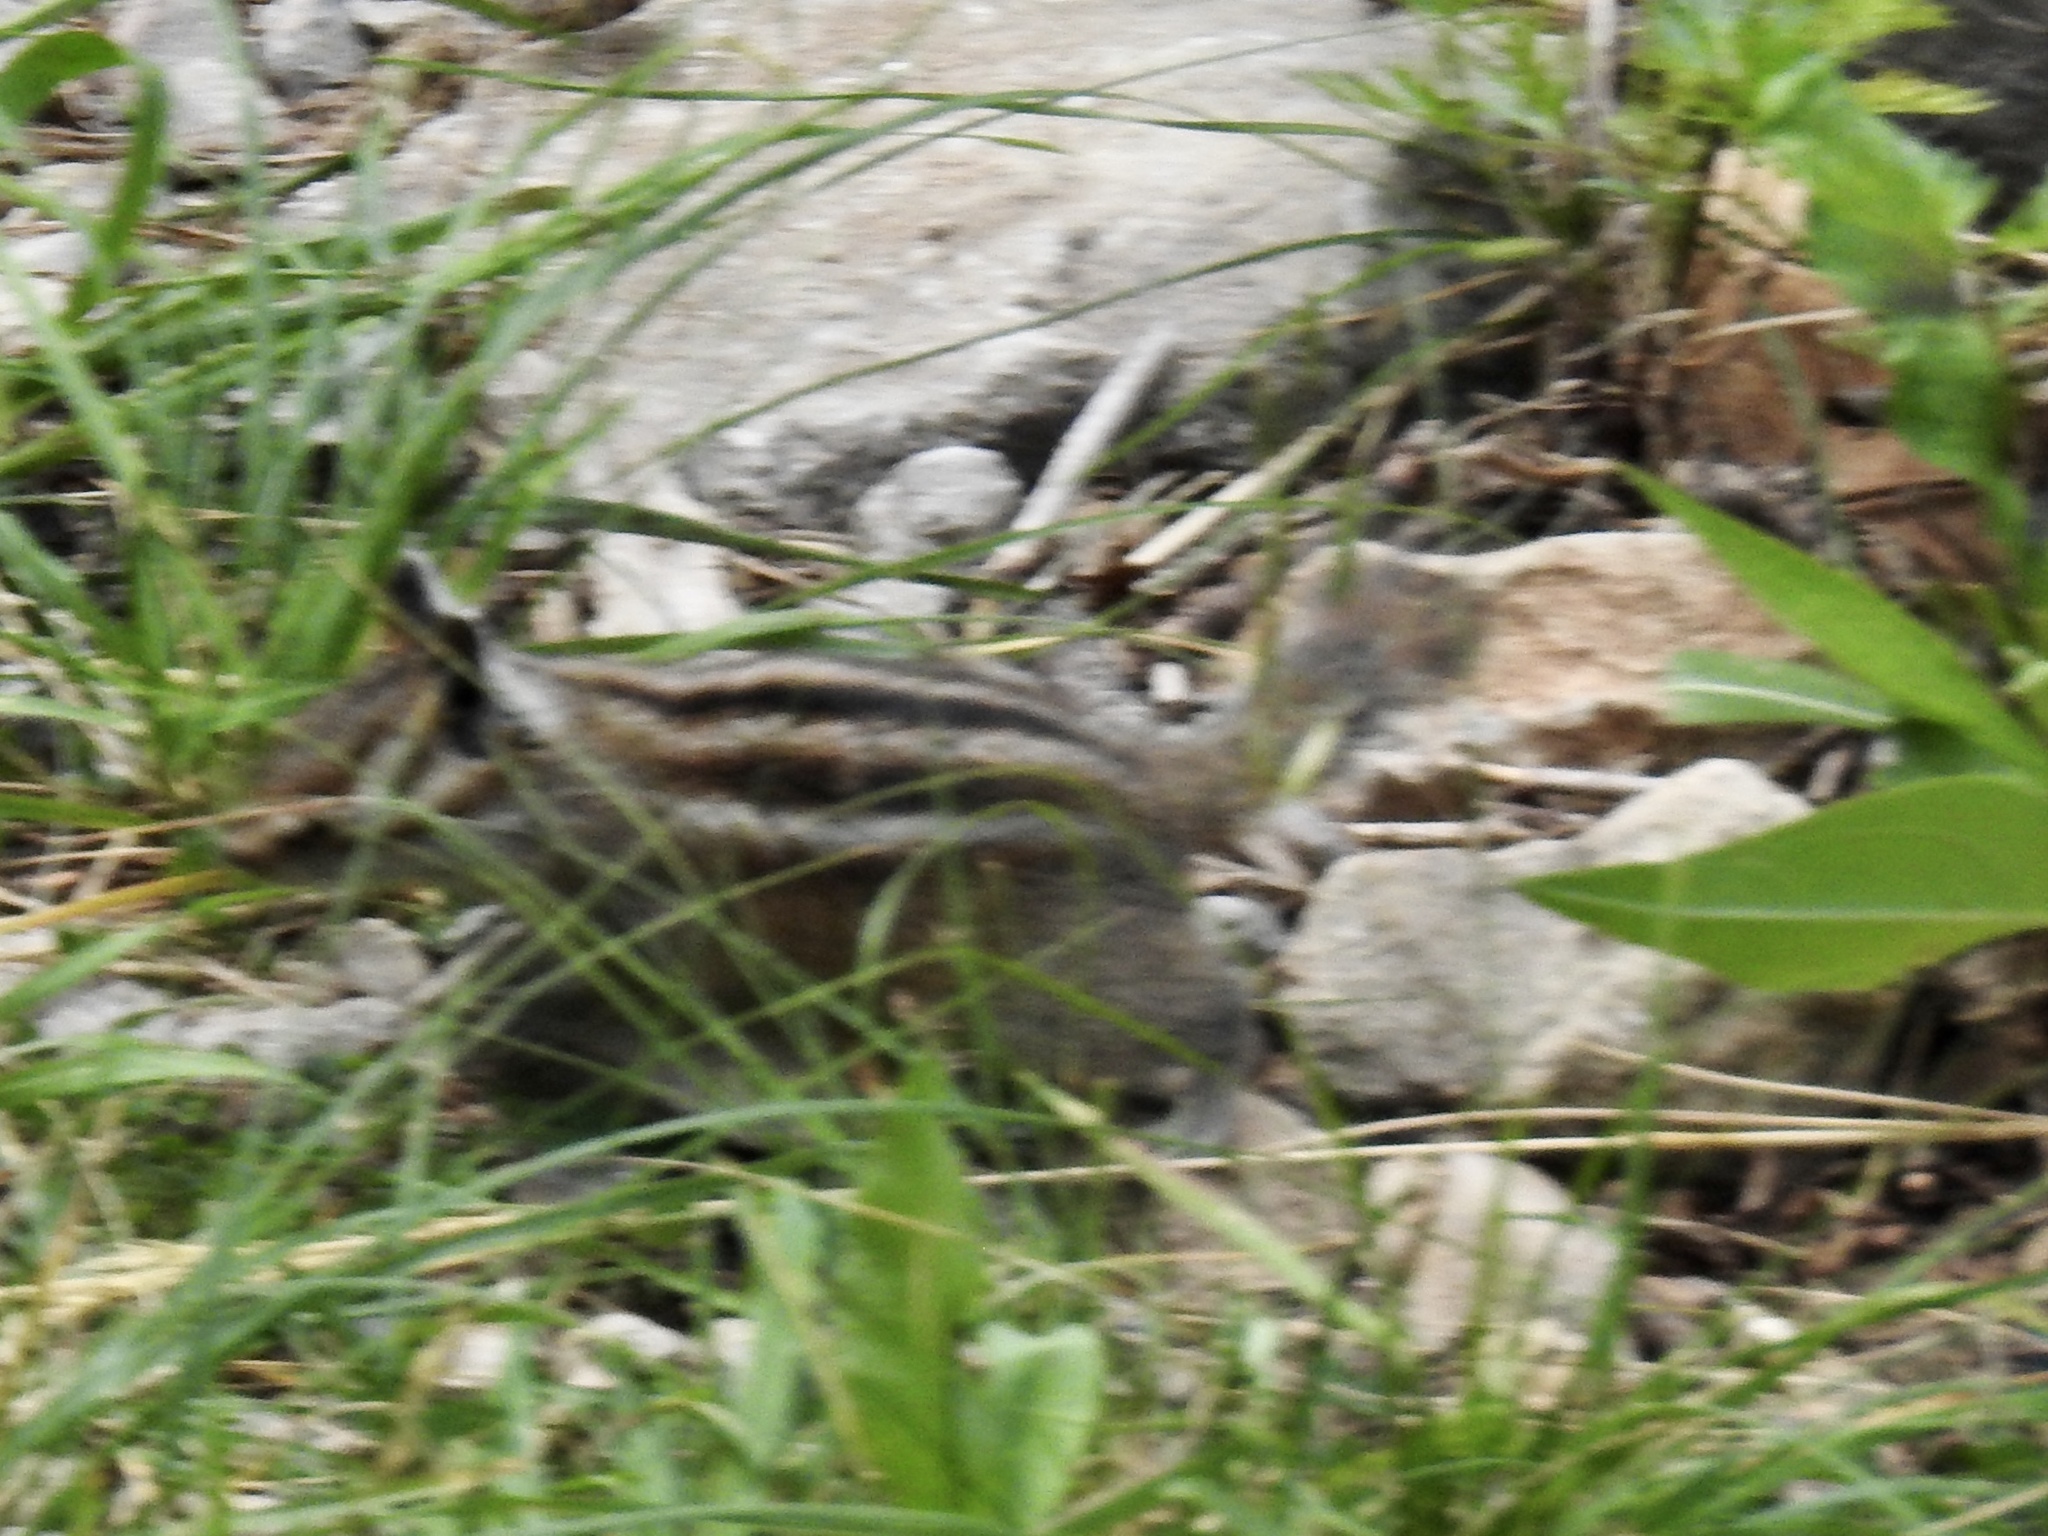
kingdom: Animalia
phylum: Chordata
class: Mammalia
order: Rodentia
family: Sciuridae
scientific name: Sciuridae
